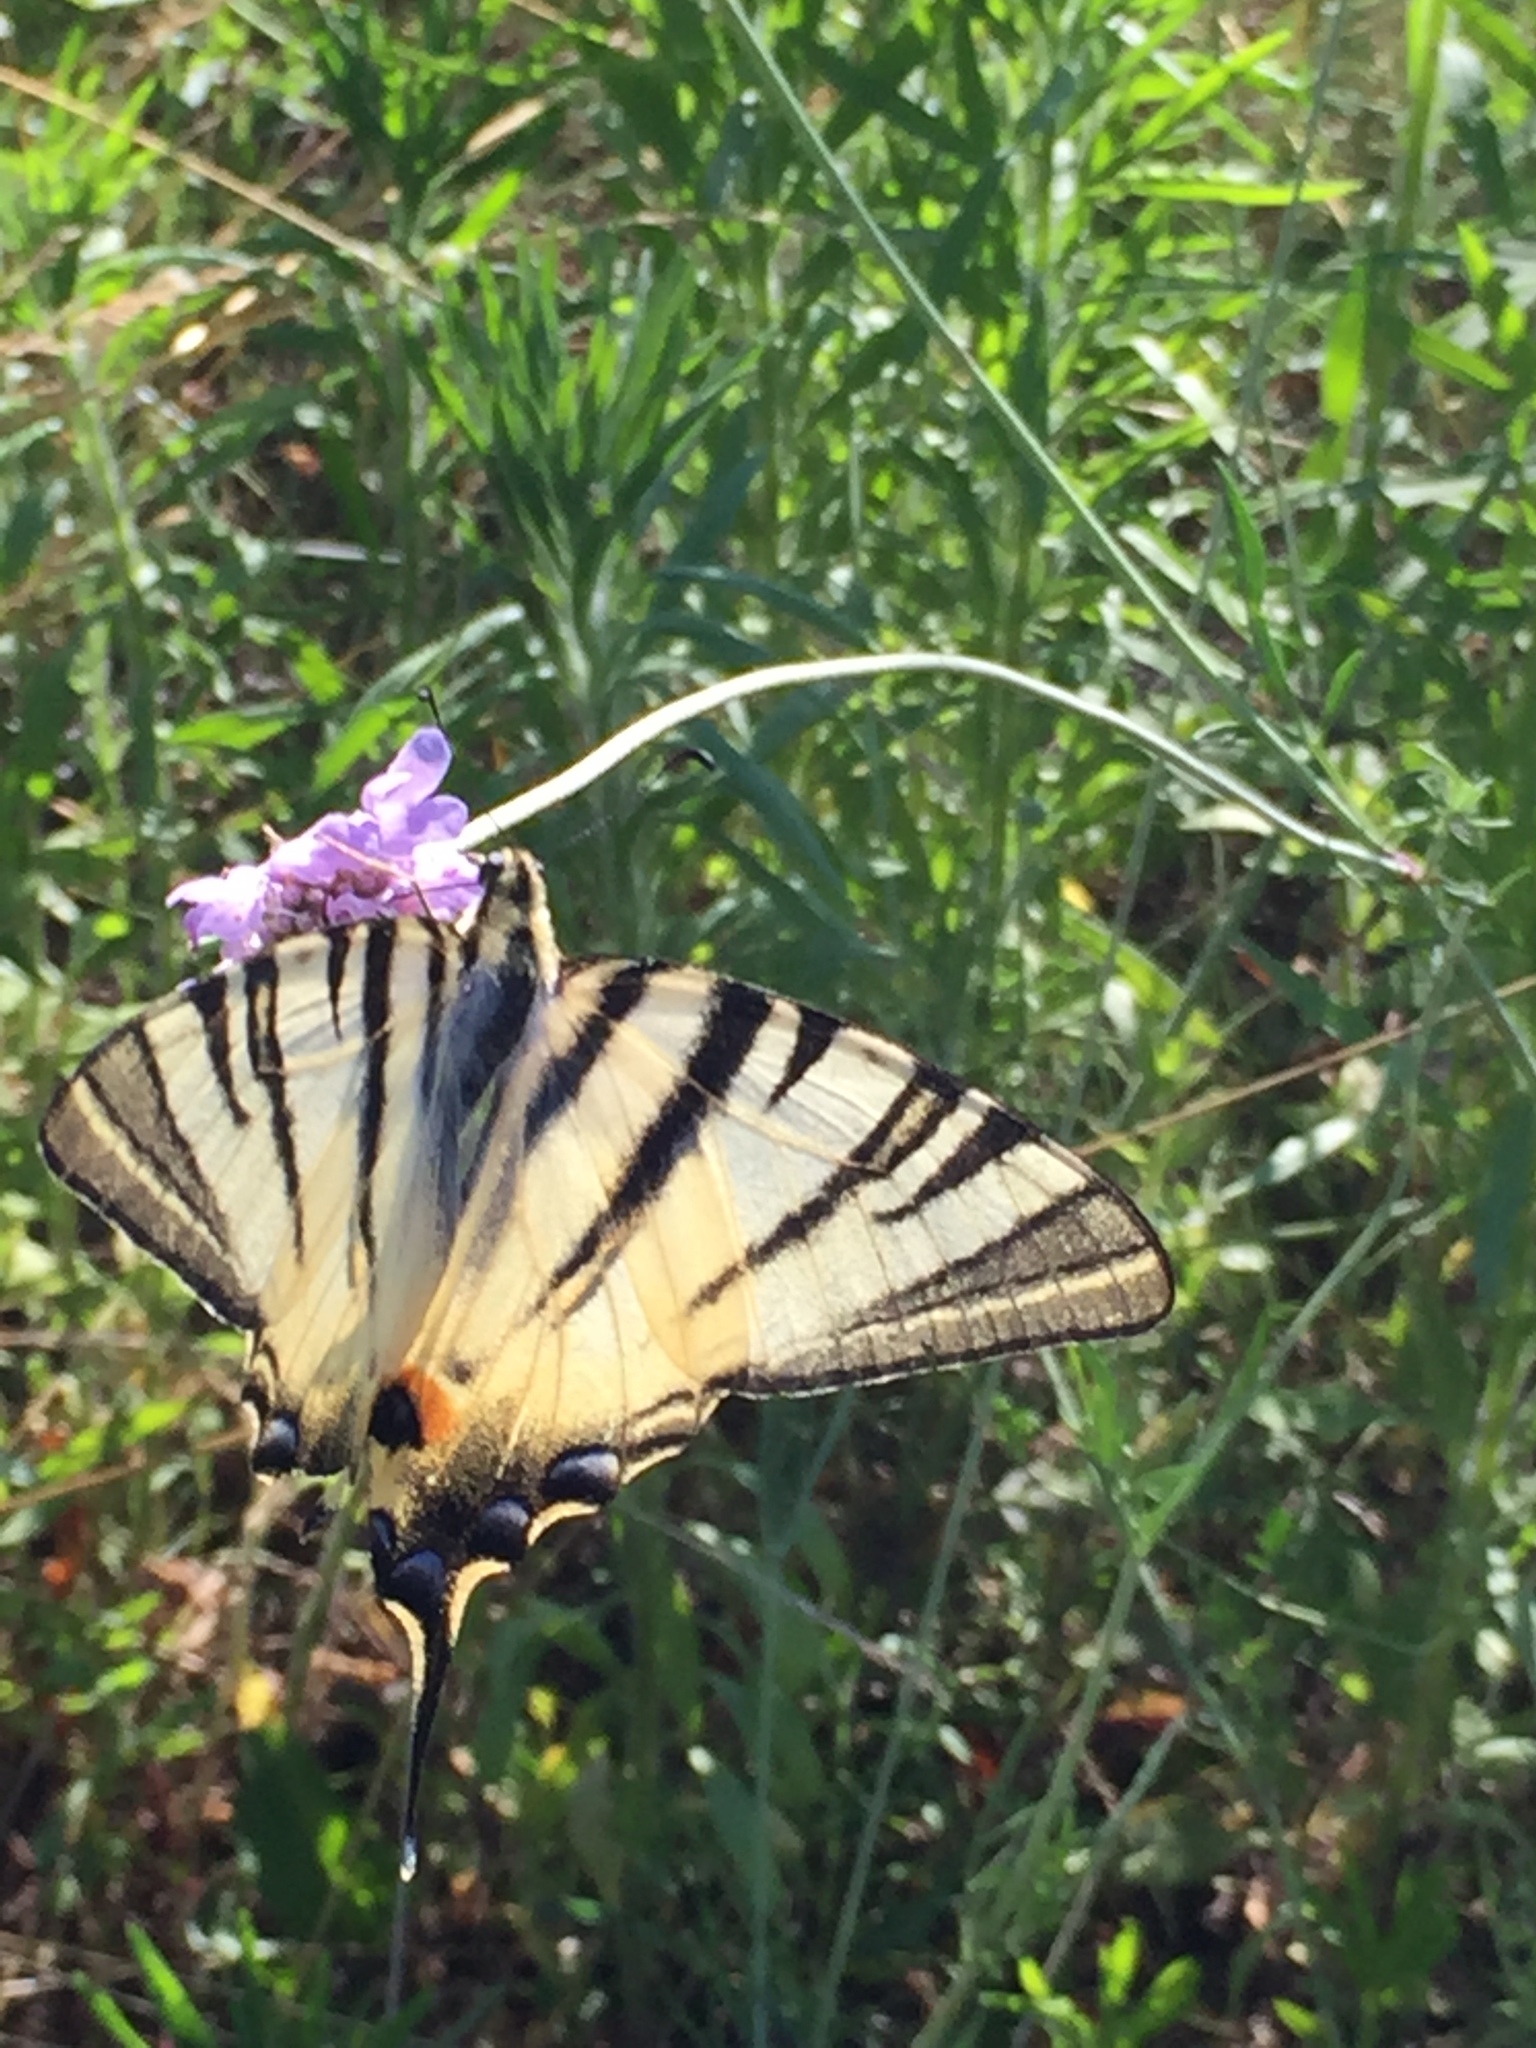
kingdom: Animalia
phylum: Arthropoda
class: Insecta
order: Lepidoptera
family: Papilionidae
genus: Iphiclides
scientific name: Iphiclides podalirius
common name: Scarce swallowtail
